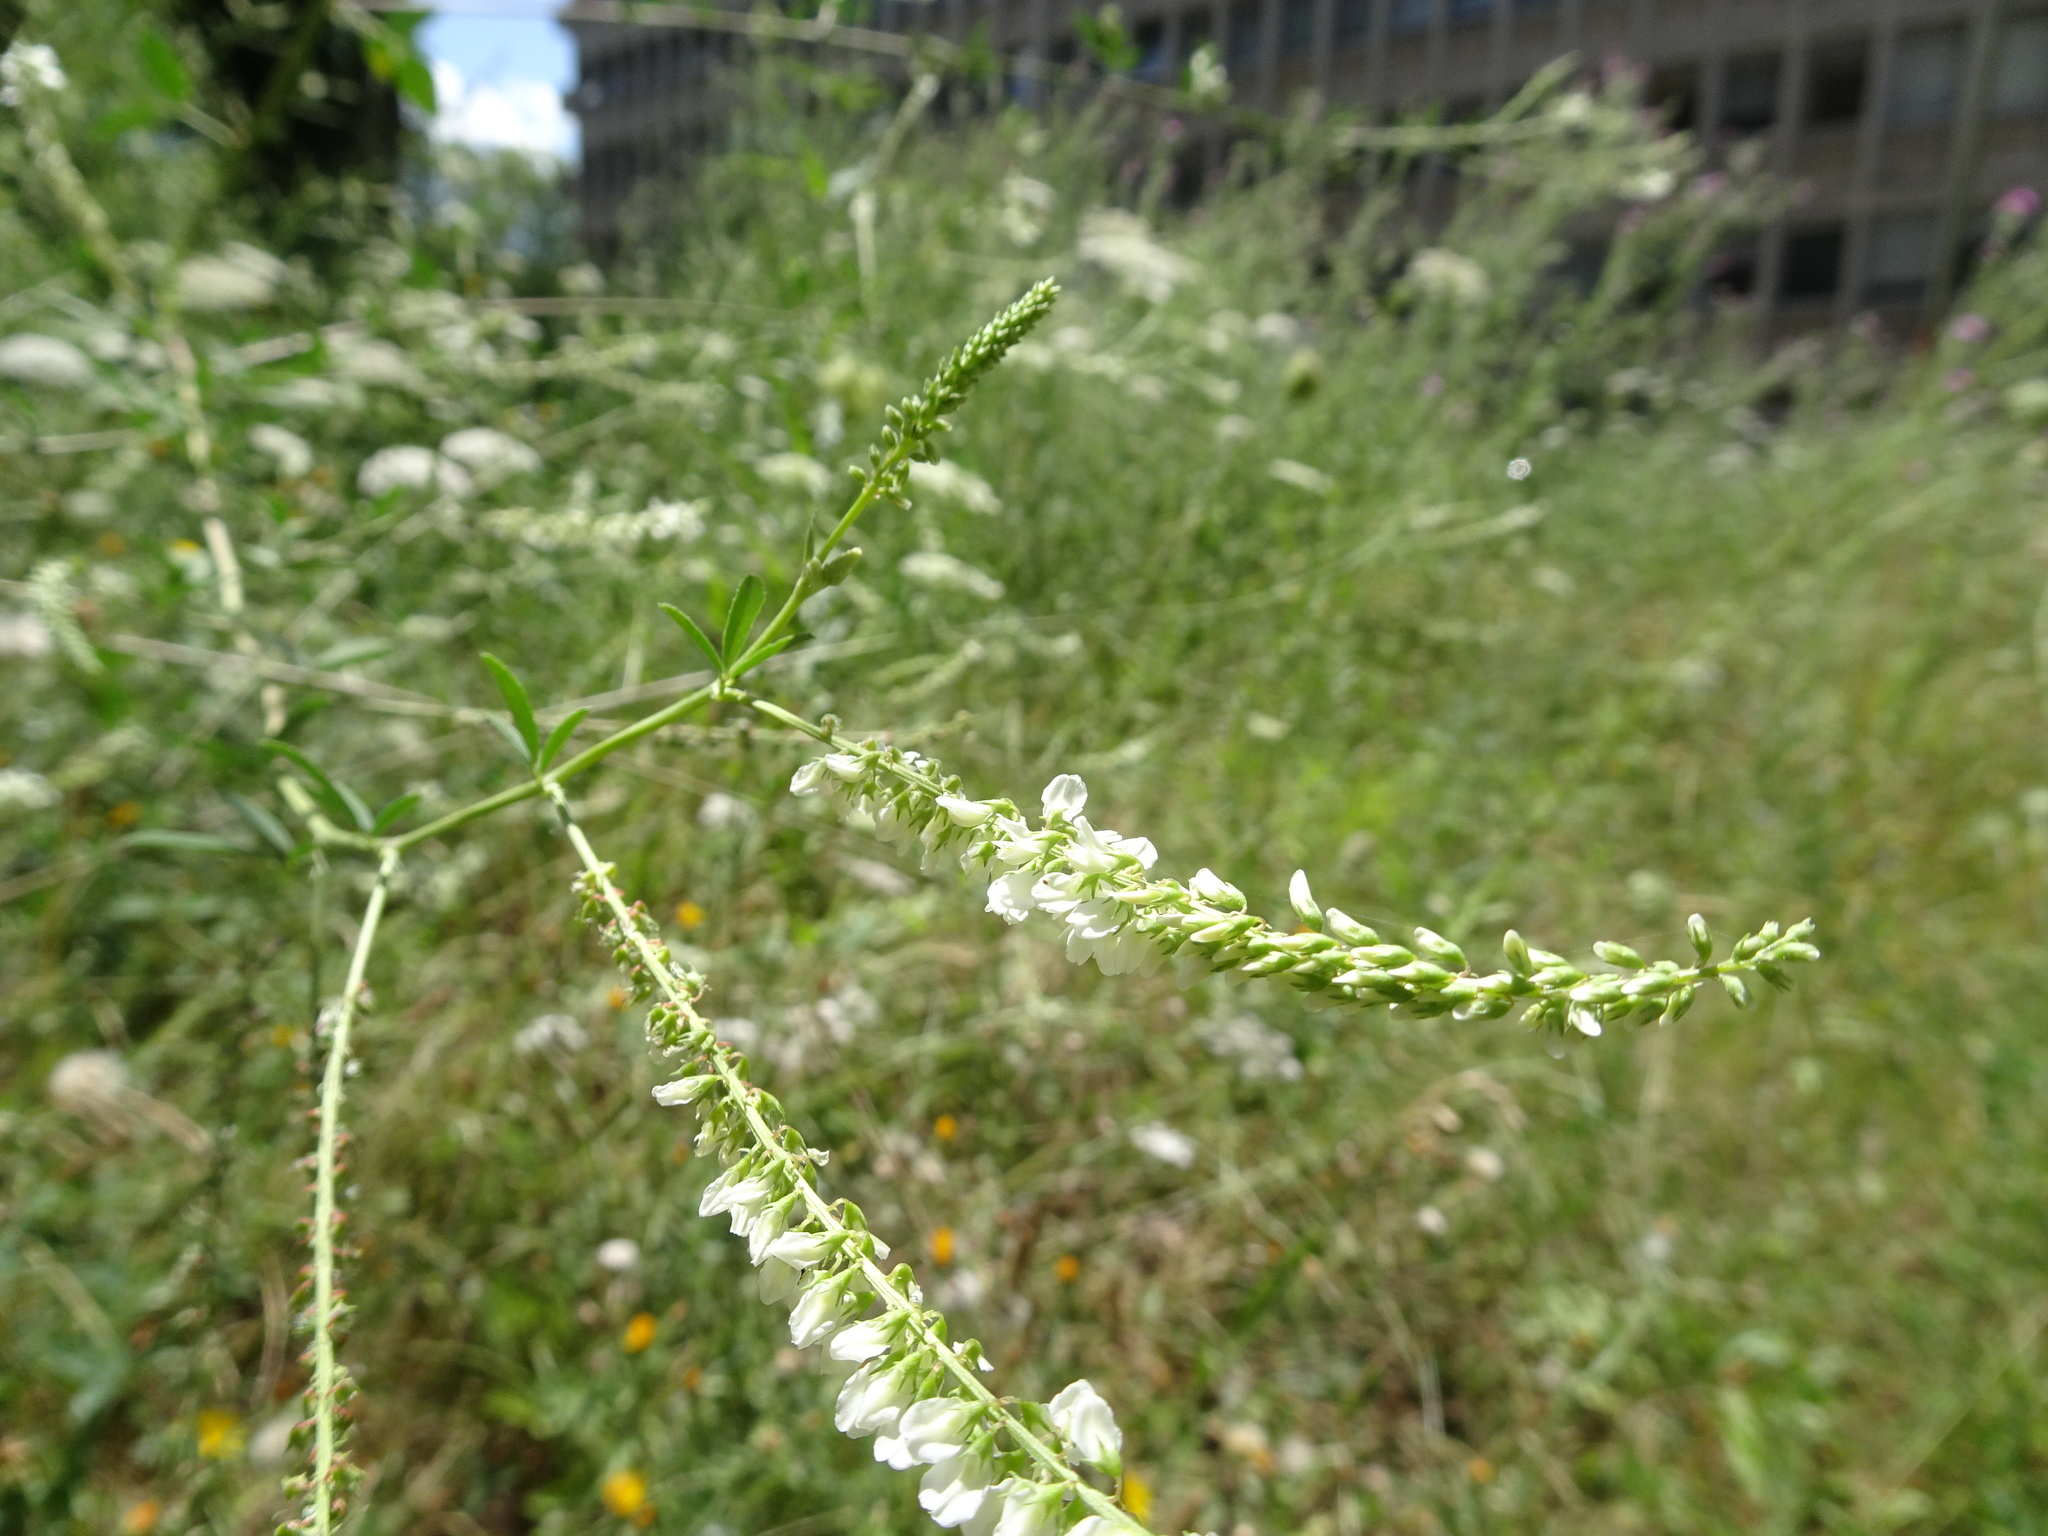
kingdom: Plantae
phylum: Tracheophyta
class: Magnoliopsida
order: Fabales
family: Fabaceae
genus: Melilotus
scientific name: Melilotus albus
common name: White melilot
